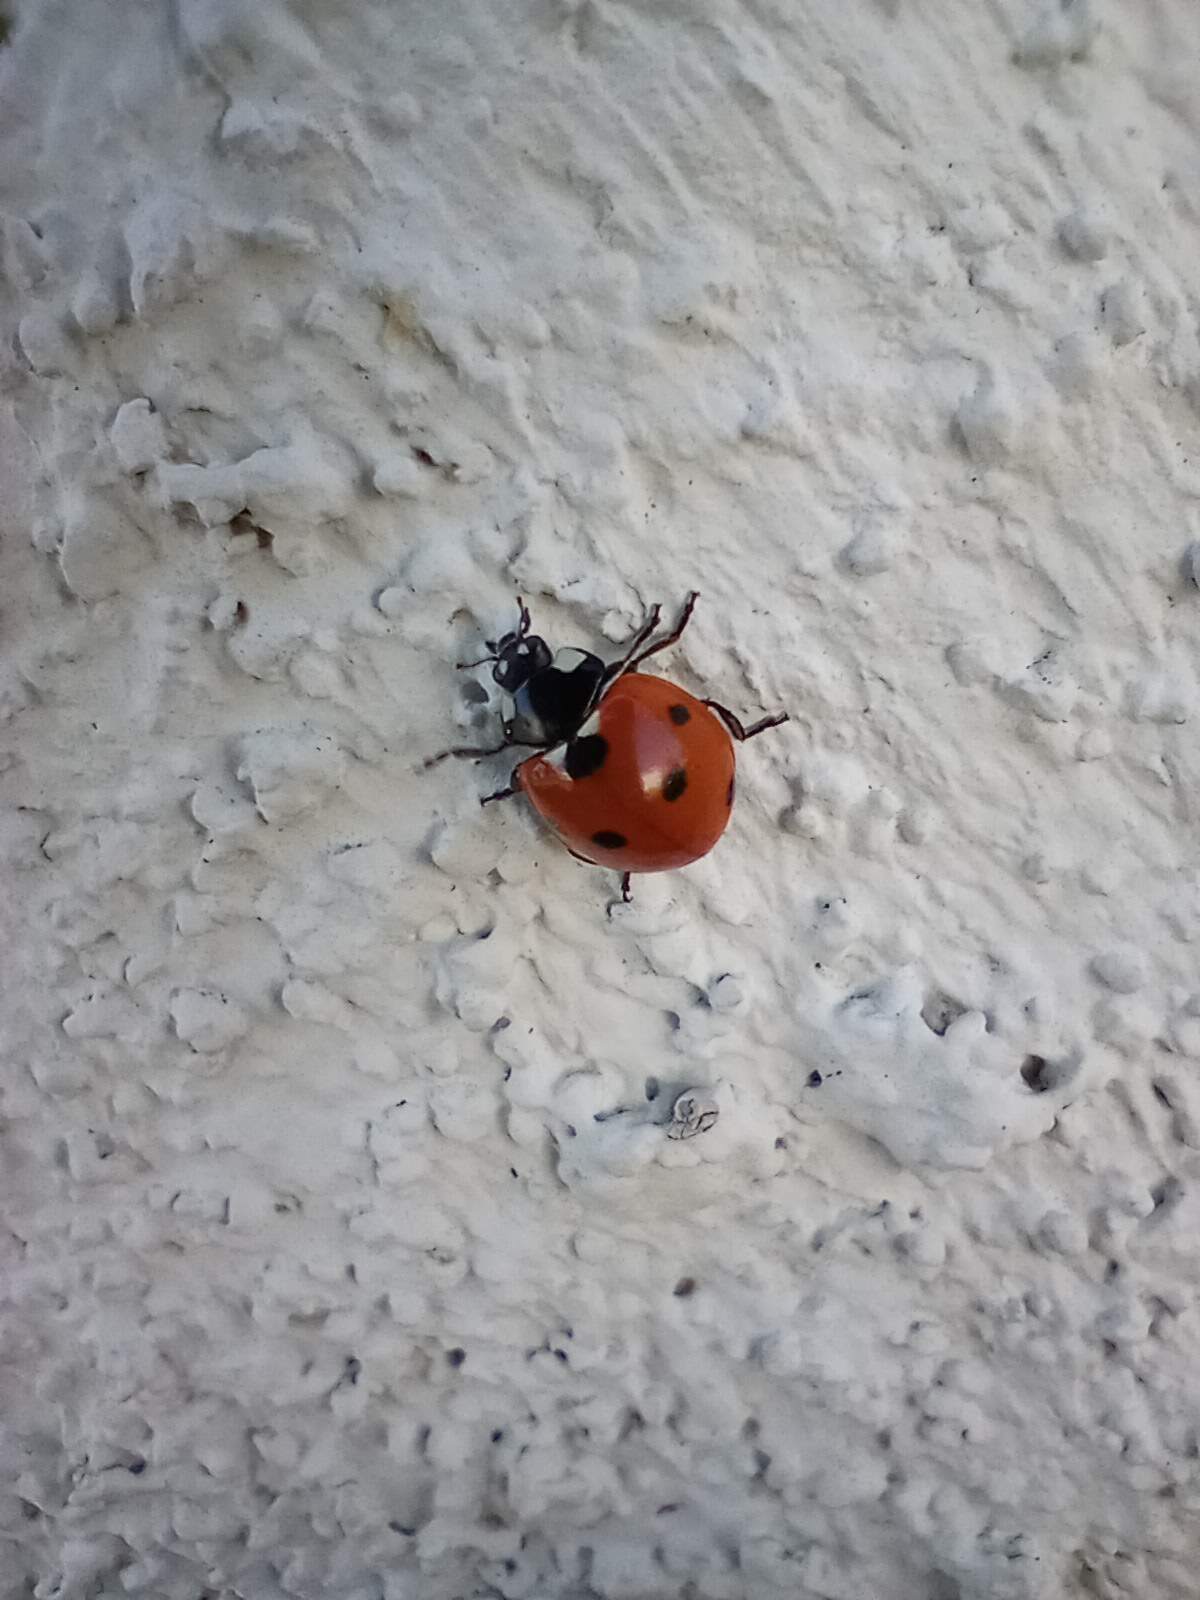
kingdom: Animalia
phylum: Arthropoda
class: Insecta
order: Coleoptera
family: Coccinellidae
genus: Coccinella
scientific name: Coccinella septempunctata
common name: Sevenspotted lady beetle
